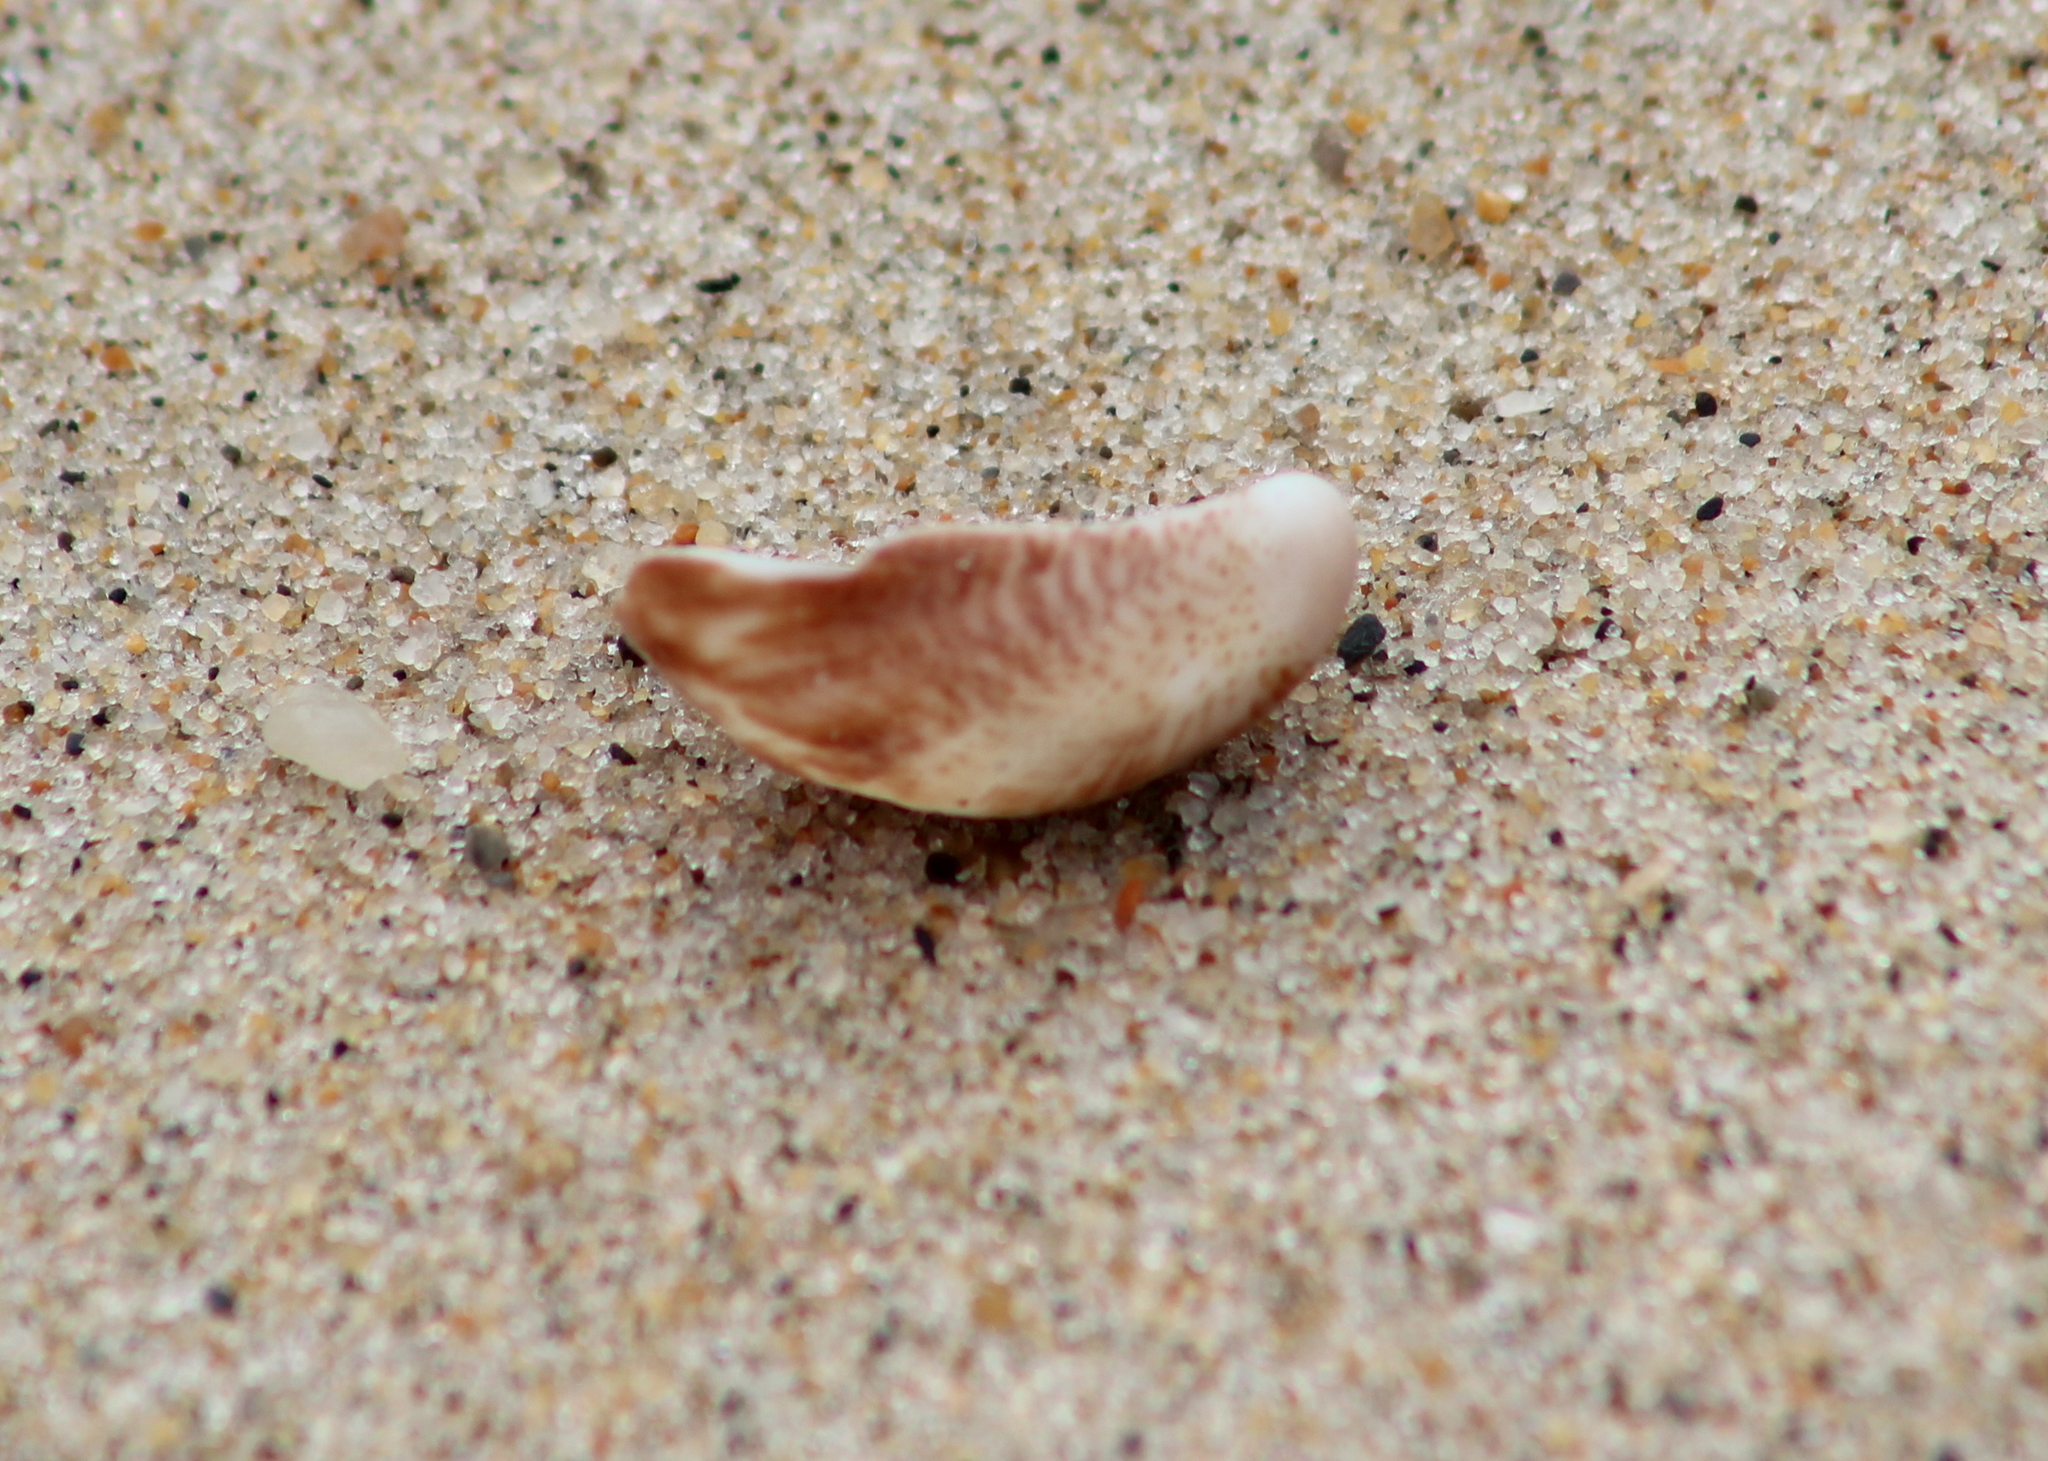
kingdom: Animalia
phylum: Mollusca
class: Gastropoda
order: Littorinimorpha
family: Calyptraeidae
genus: Crepidula
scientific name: Crepidula fornicata
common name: Slipper limpet
